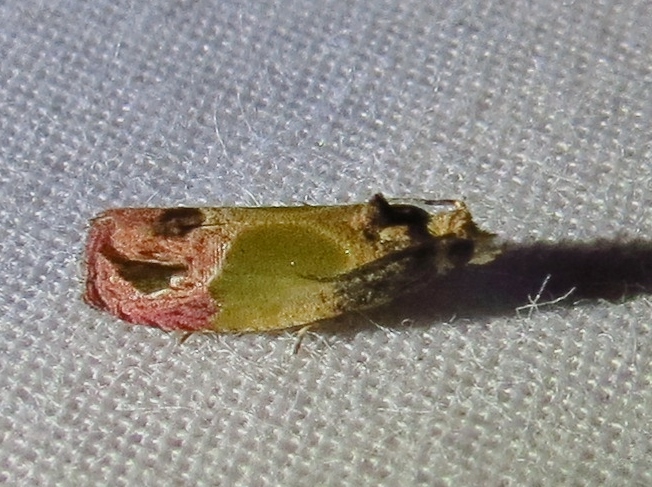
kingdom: Animalia
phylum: Arthropoda
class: Insecta
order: Lepidoptera
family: Tortricidae
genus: Eumarozia
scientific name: Eumarozia malachitana
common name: Sculptured moth
